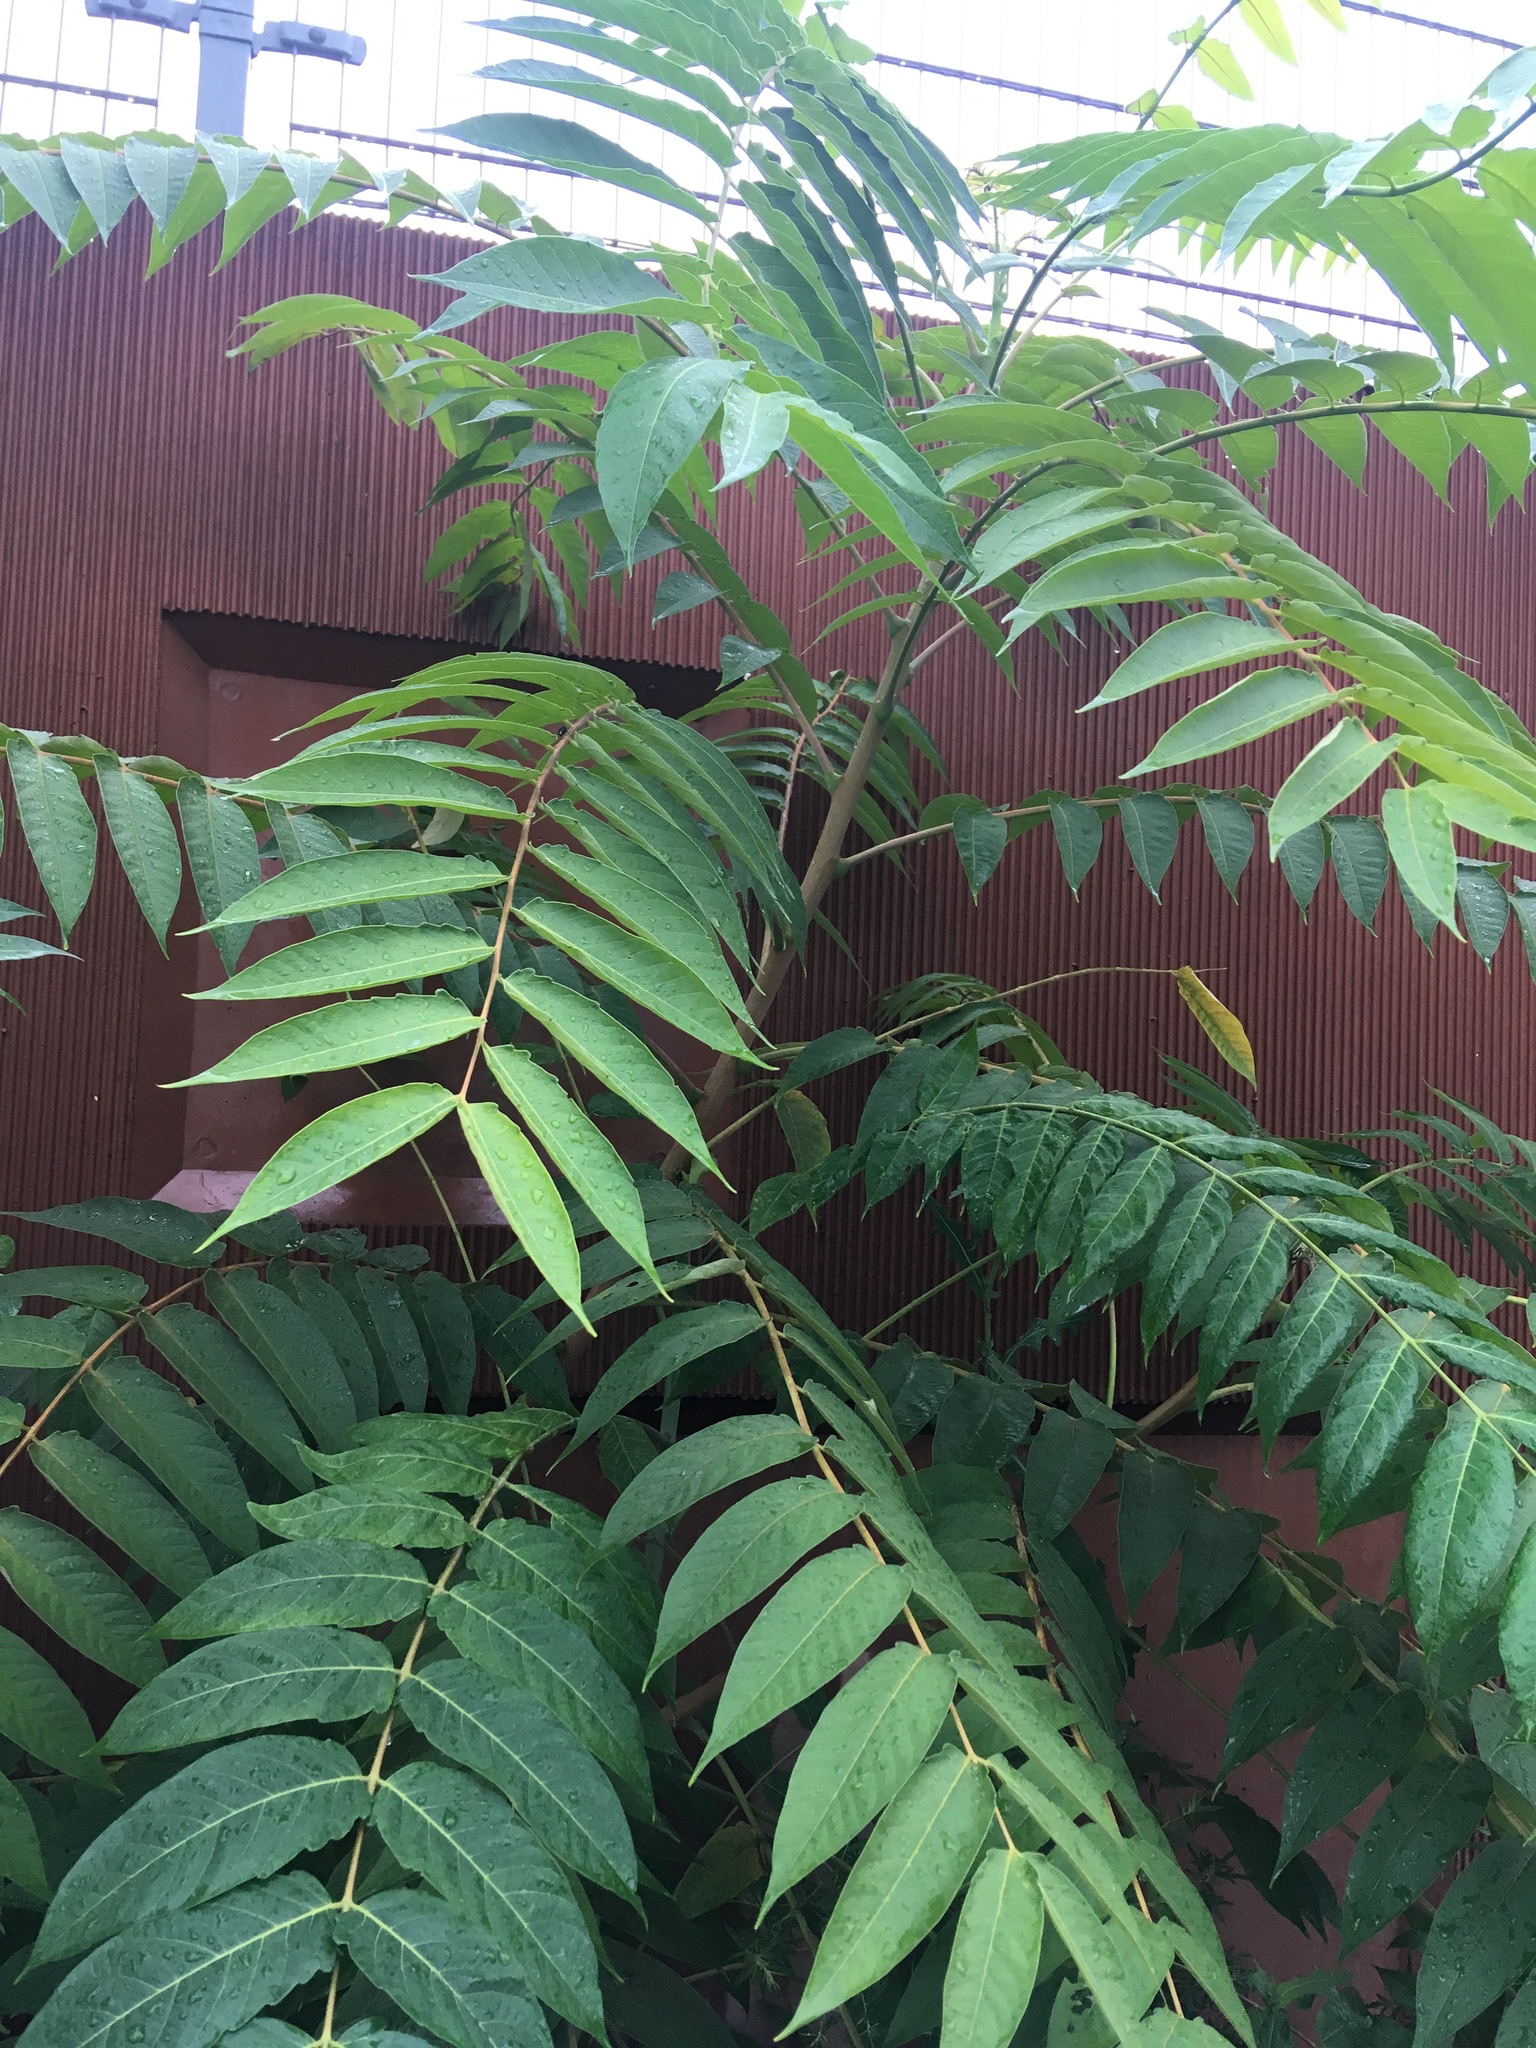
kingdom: Plantae
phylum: Tracheophyta
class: Magnoliopsida
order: Sapindales
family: Simaroubaceae
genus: Ailanthus
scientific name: Ailanthus altissima
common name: Tree-of-heaven
